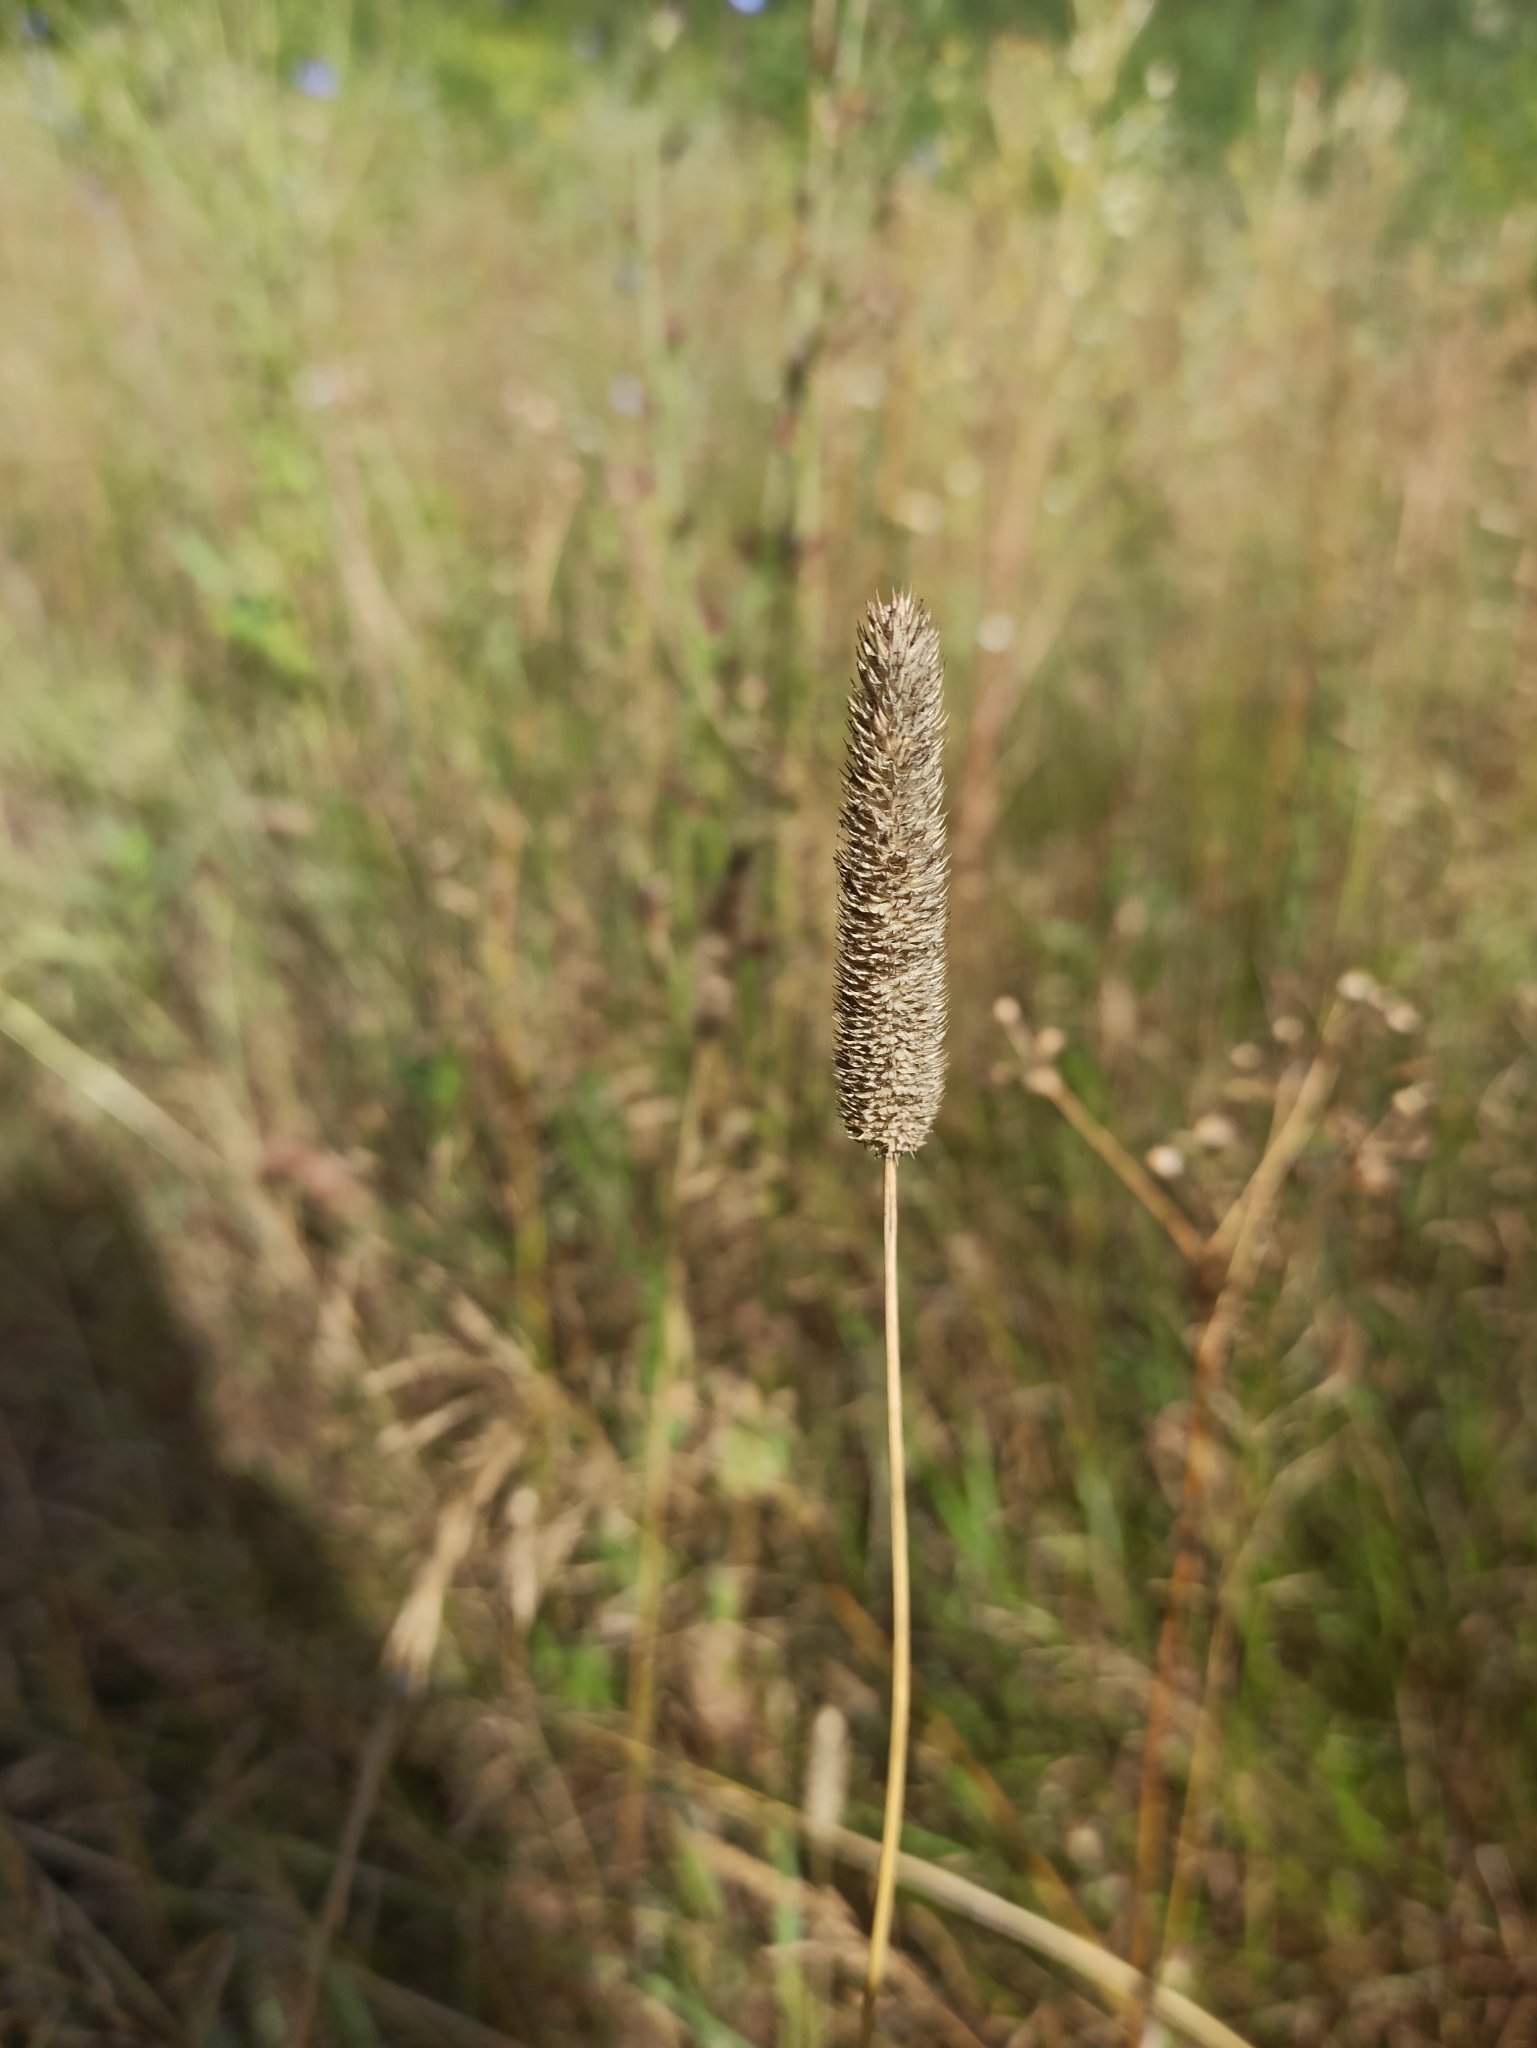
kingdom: Plantae
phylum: Tracheophyta
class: Liliopsida
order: Poales
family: Poaceae
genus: Phleum
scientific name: Phleum pratense
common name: Timothy grass
